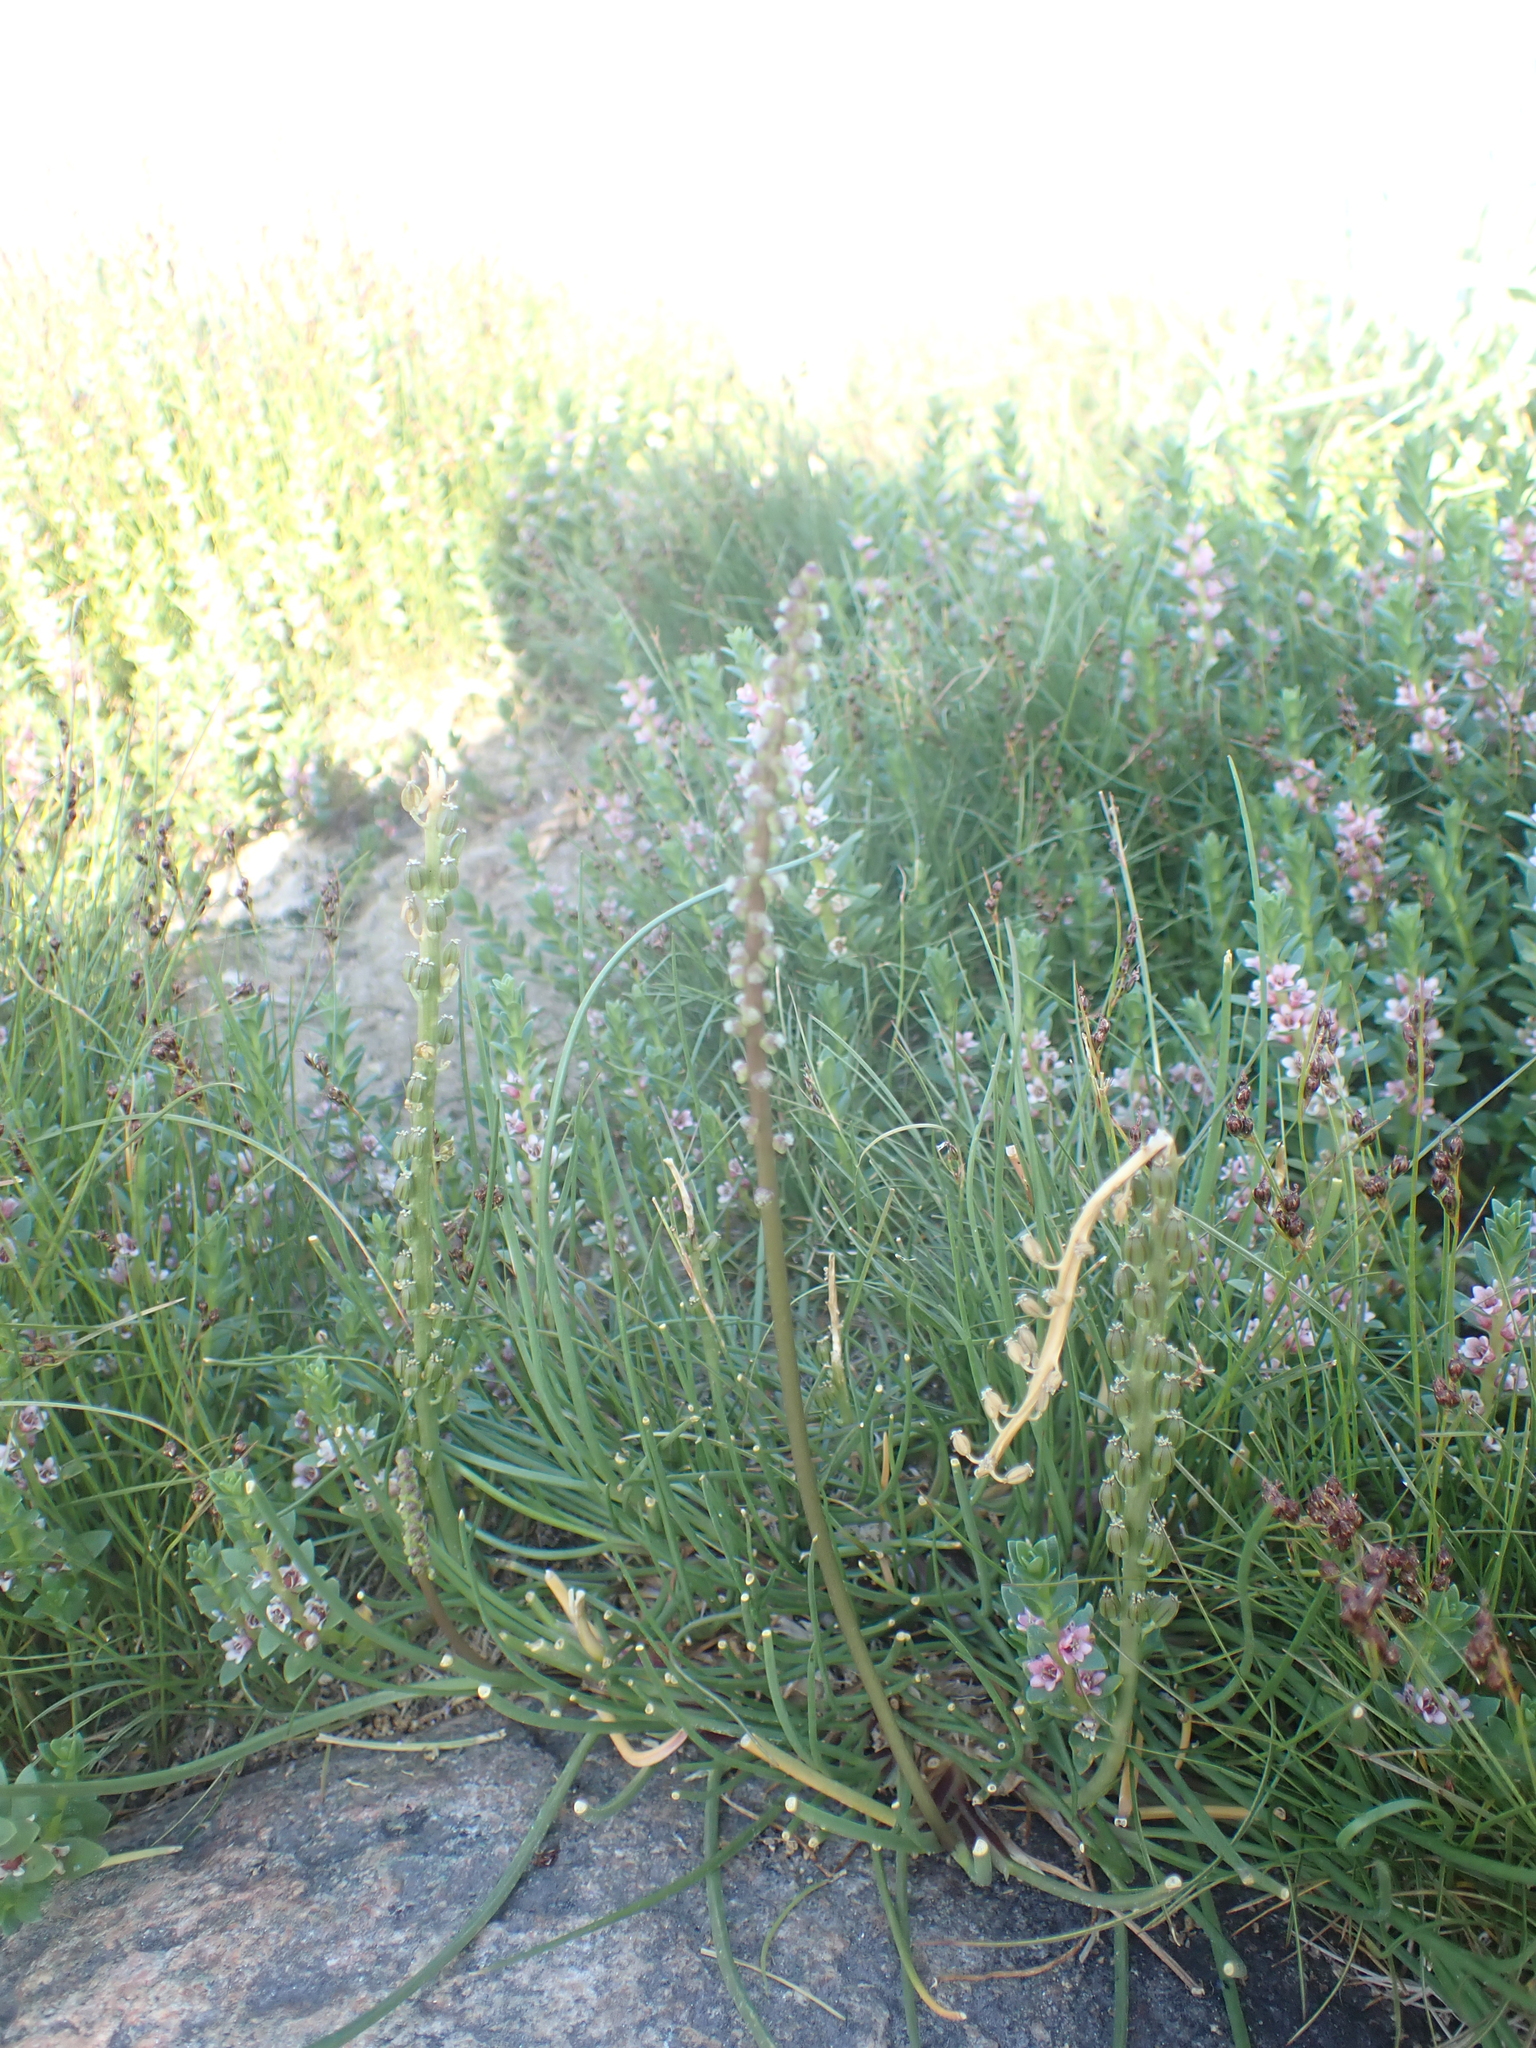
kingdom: Plantae
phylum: Tracheophyta
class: Liliopsida
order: Alismatales
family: Juncaginaceae
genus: Triglochin
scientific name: Triglochin maritima
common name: Sea arrowgrass
